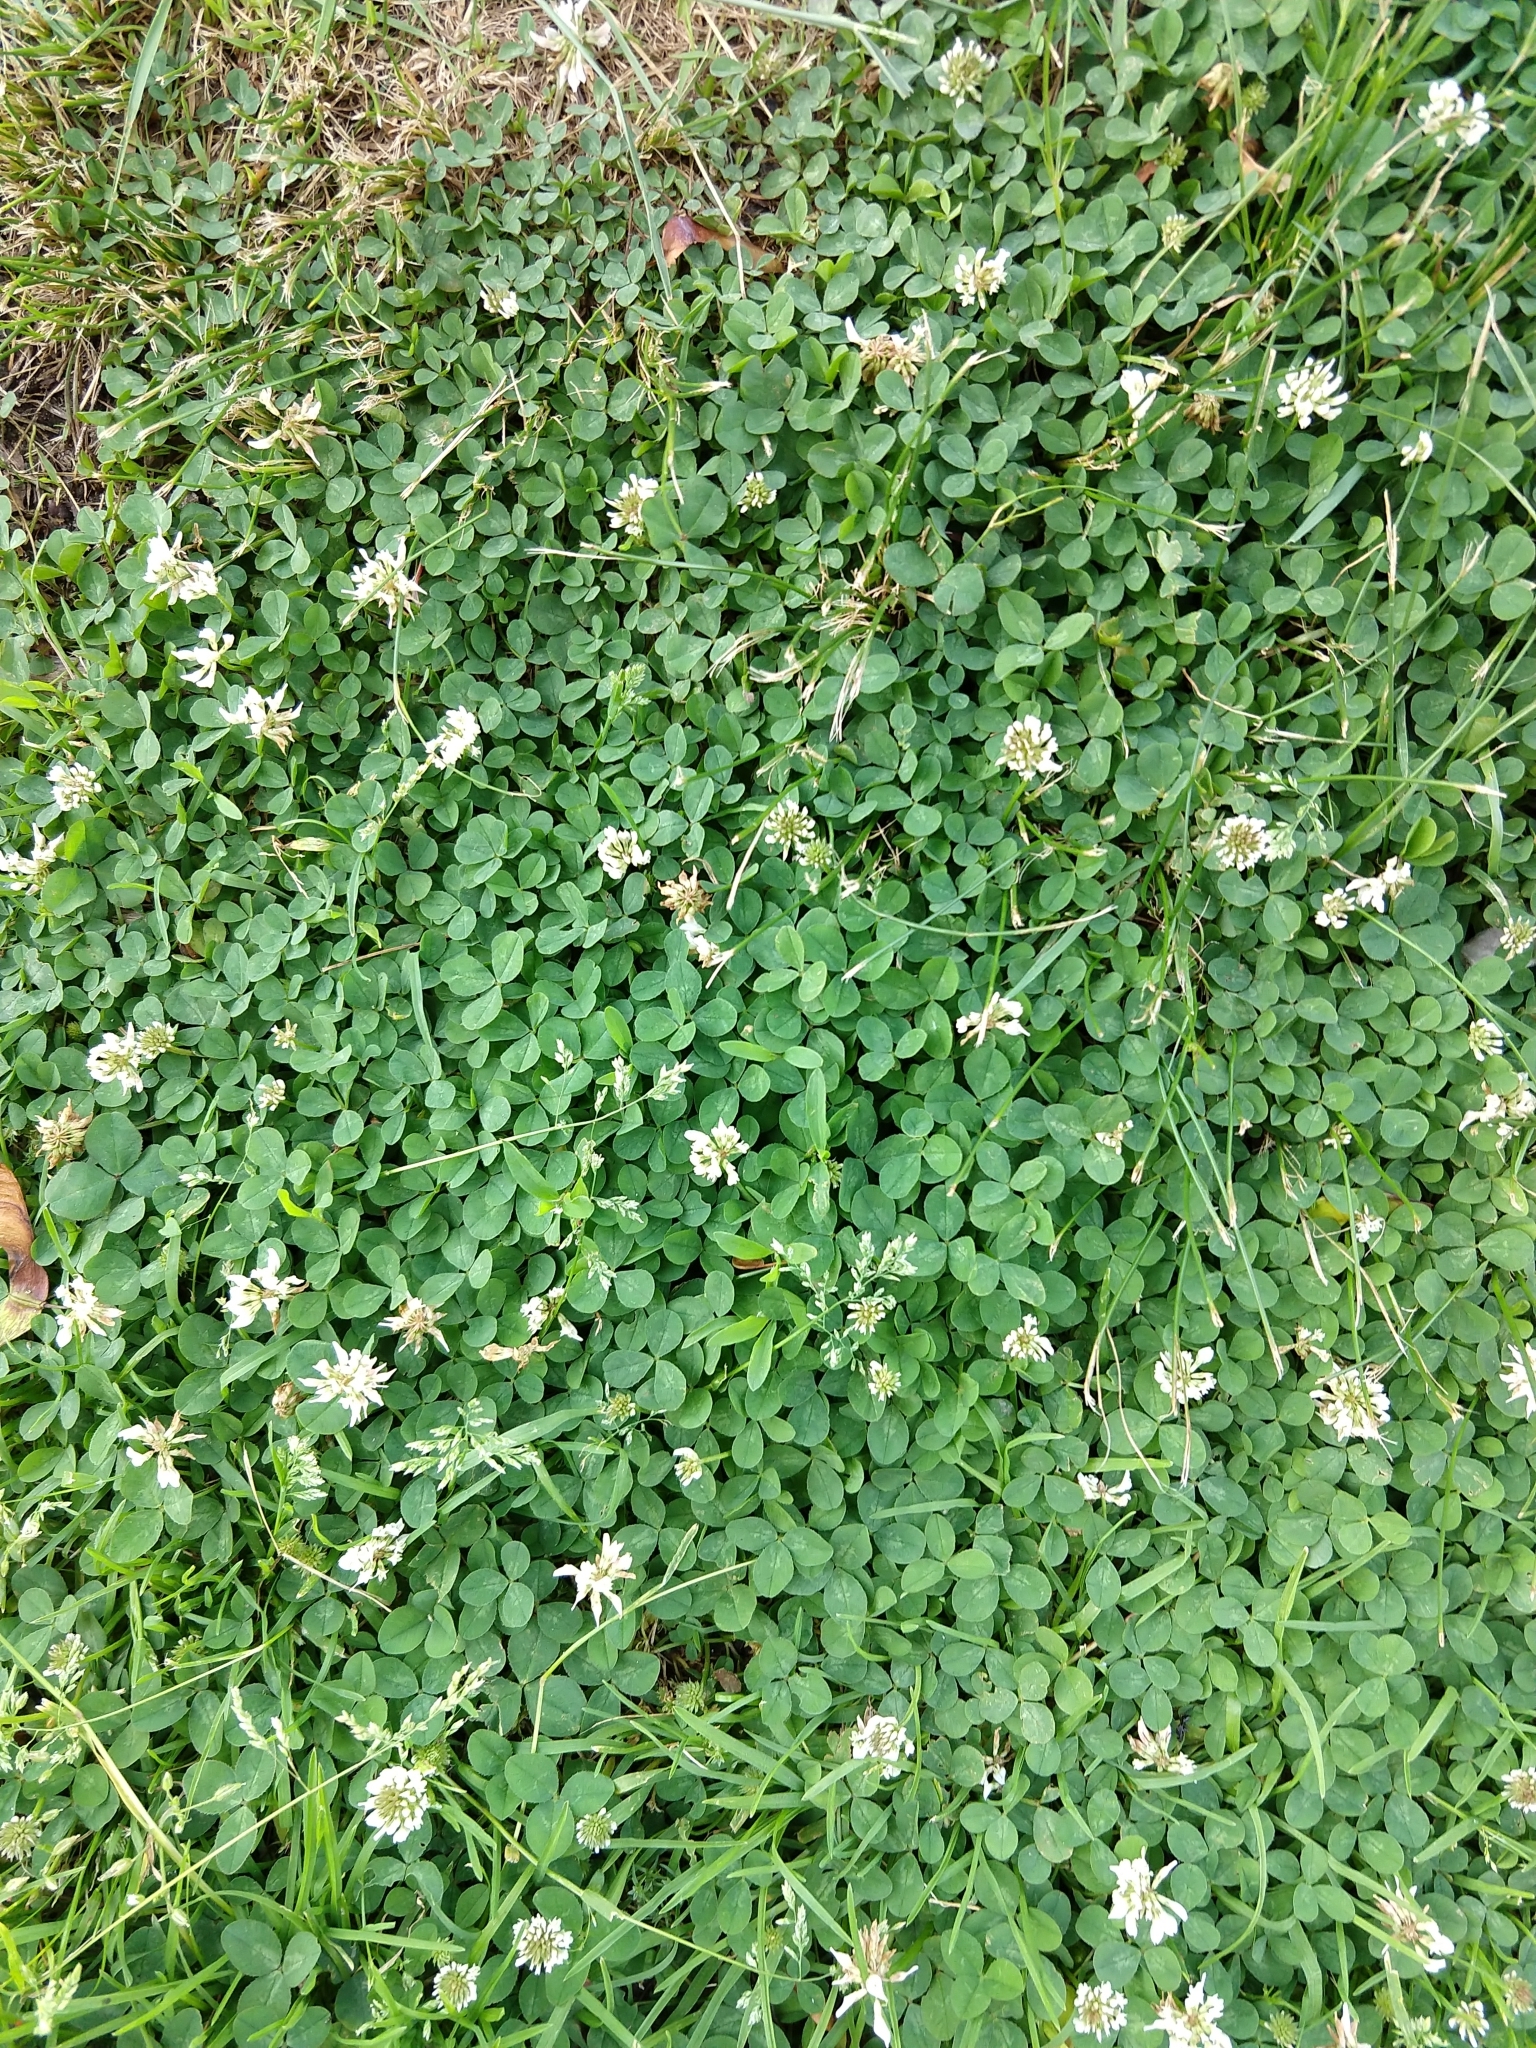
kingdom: Plantae
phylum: Tracheophyta
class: Magnoliopsida
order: Fabales
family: Fabaceae
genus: Trifolium
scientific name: Trifolium repens
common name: White clover
